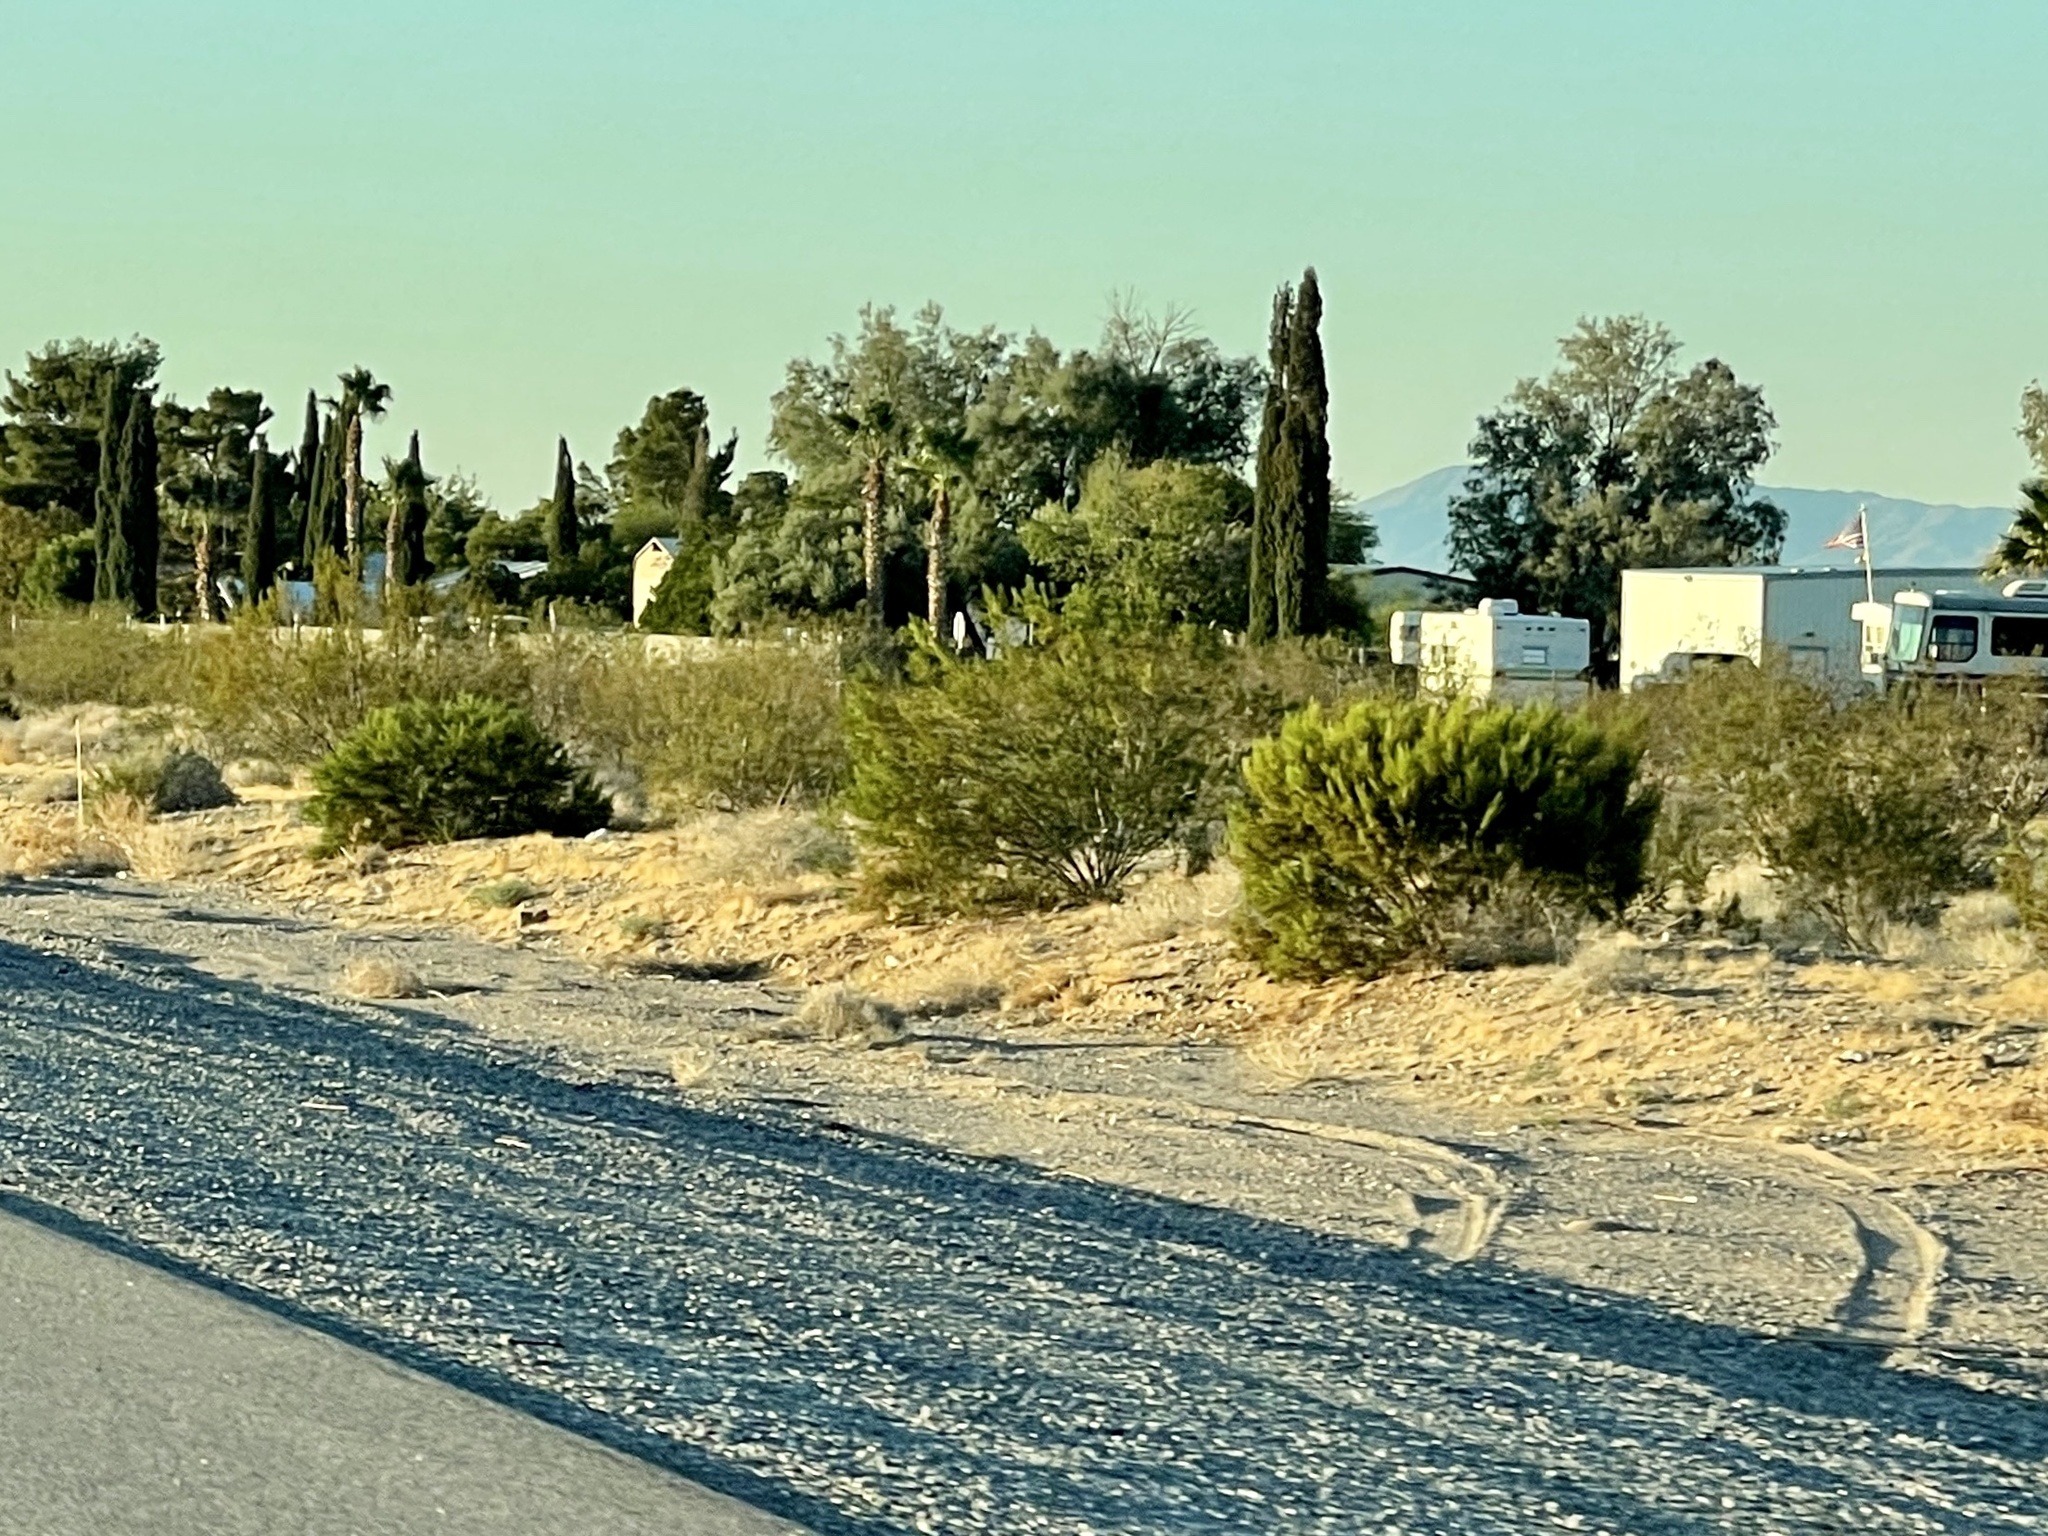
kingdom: Plantae
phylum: Tracheophyta
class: Magnoliopsida
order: Zygophyllales
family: Zygophyllaceae
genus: Larrea
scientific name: Larrea tridentata
